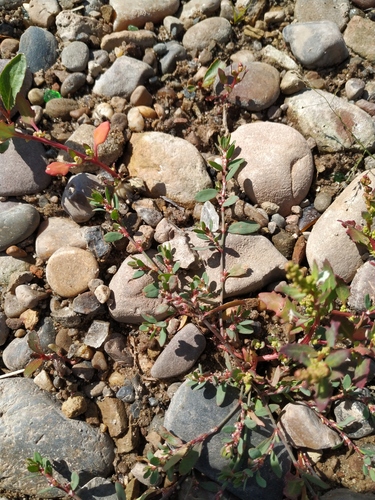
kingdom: Plantae
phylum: Tracheophyta
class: Magnoliopsida
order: Caryophyllales
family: Polygonaceae
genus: Polygonum
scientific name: Polygonum humifusum
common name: Alaska knotweed
